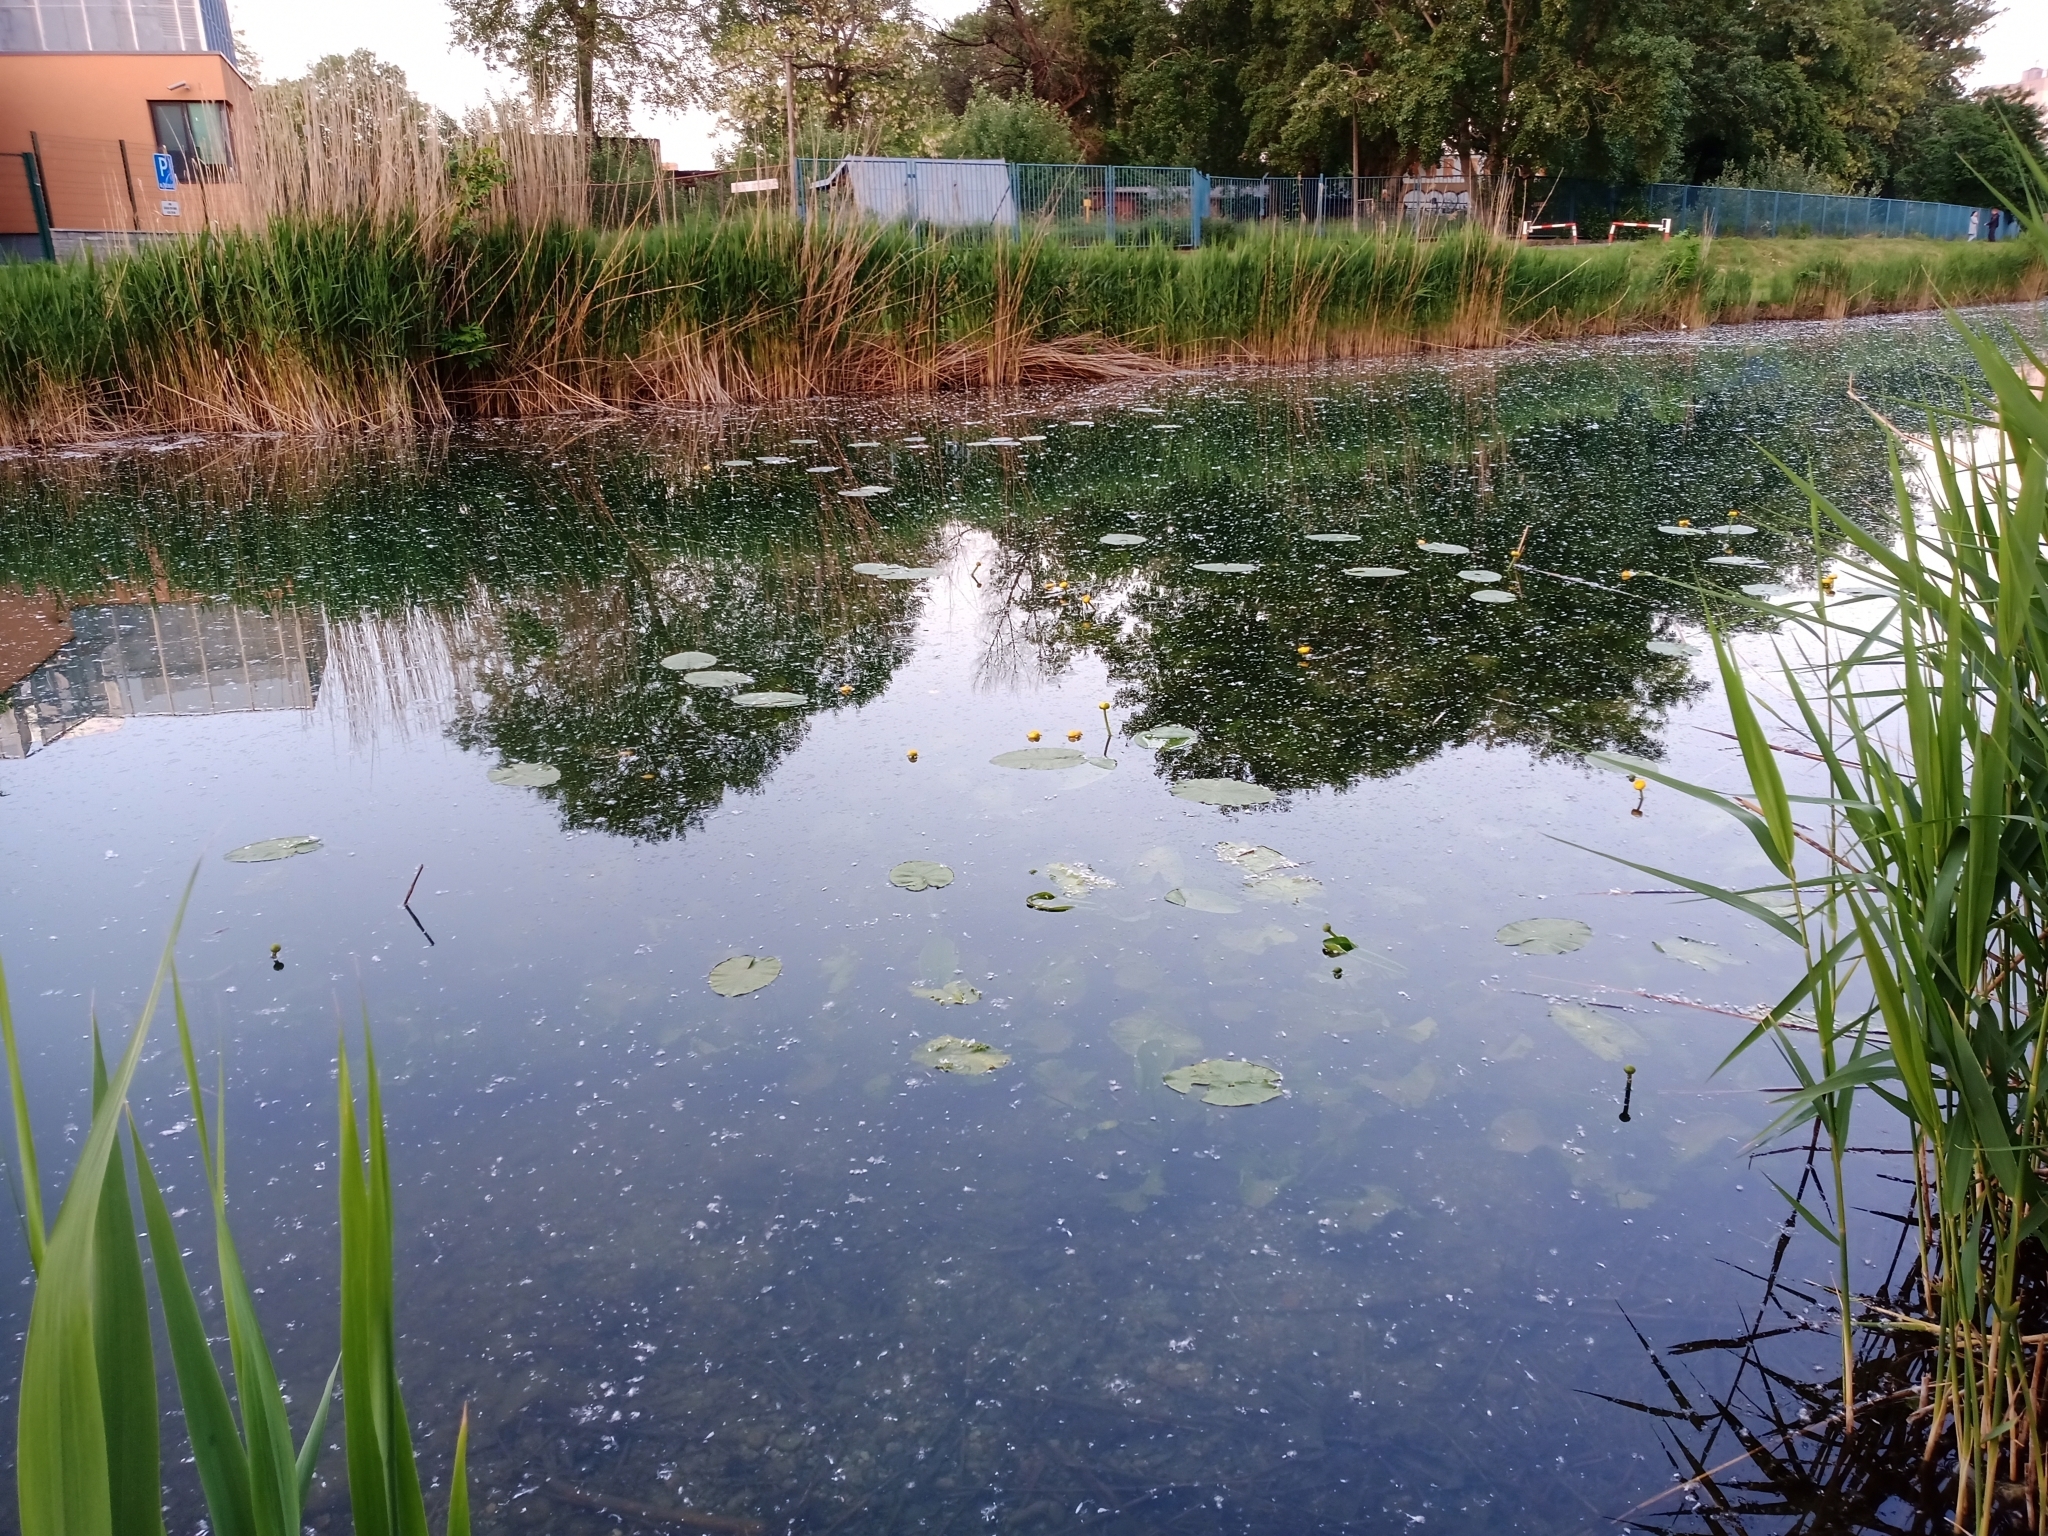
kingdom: Plantae
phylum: Tracheophyta
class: Magnoliopsida
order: Nymphaeales
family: Nymphaeaceae
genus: Nuphar
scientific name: Nuphar lutea
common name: Yellow water-lily
